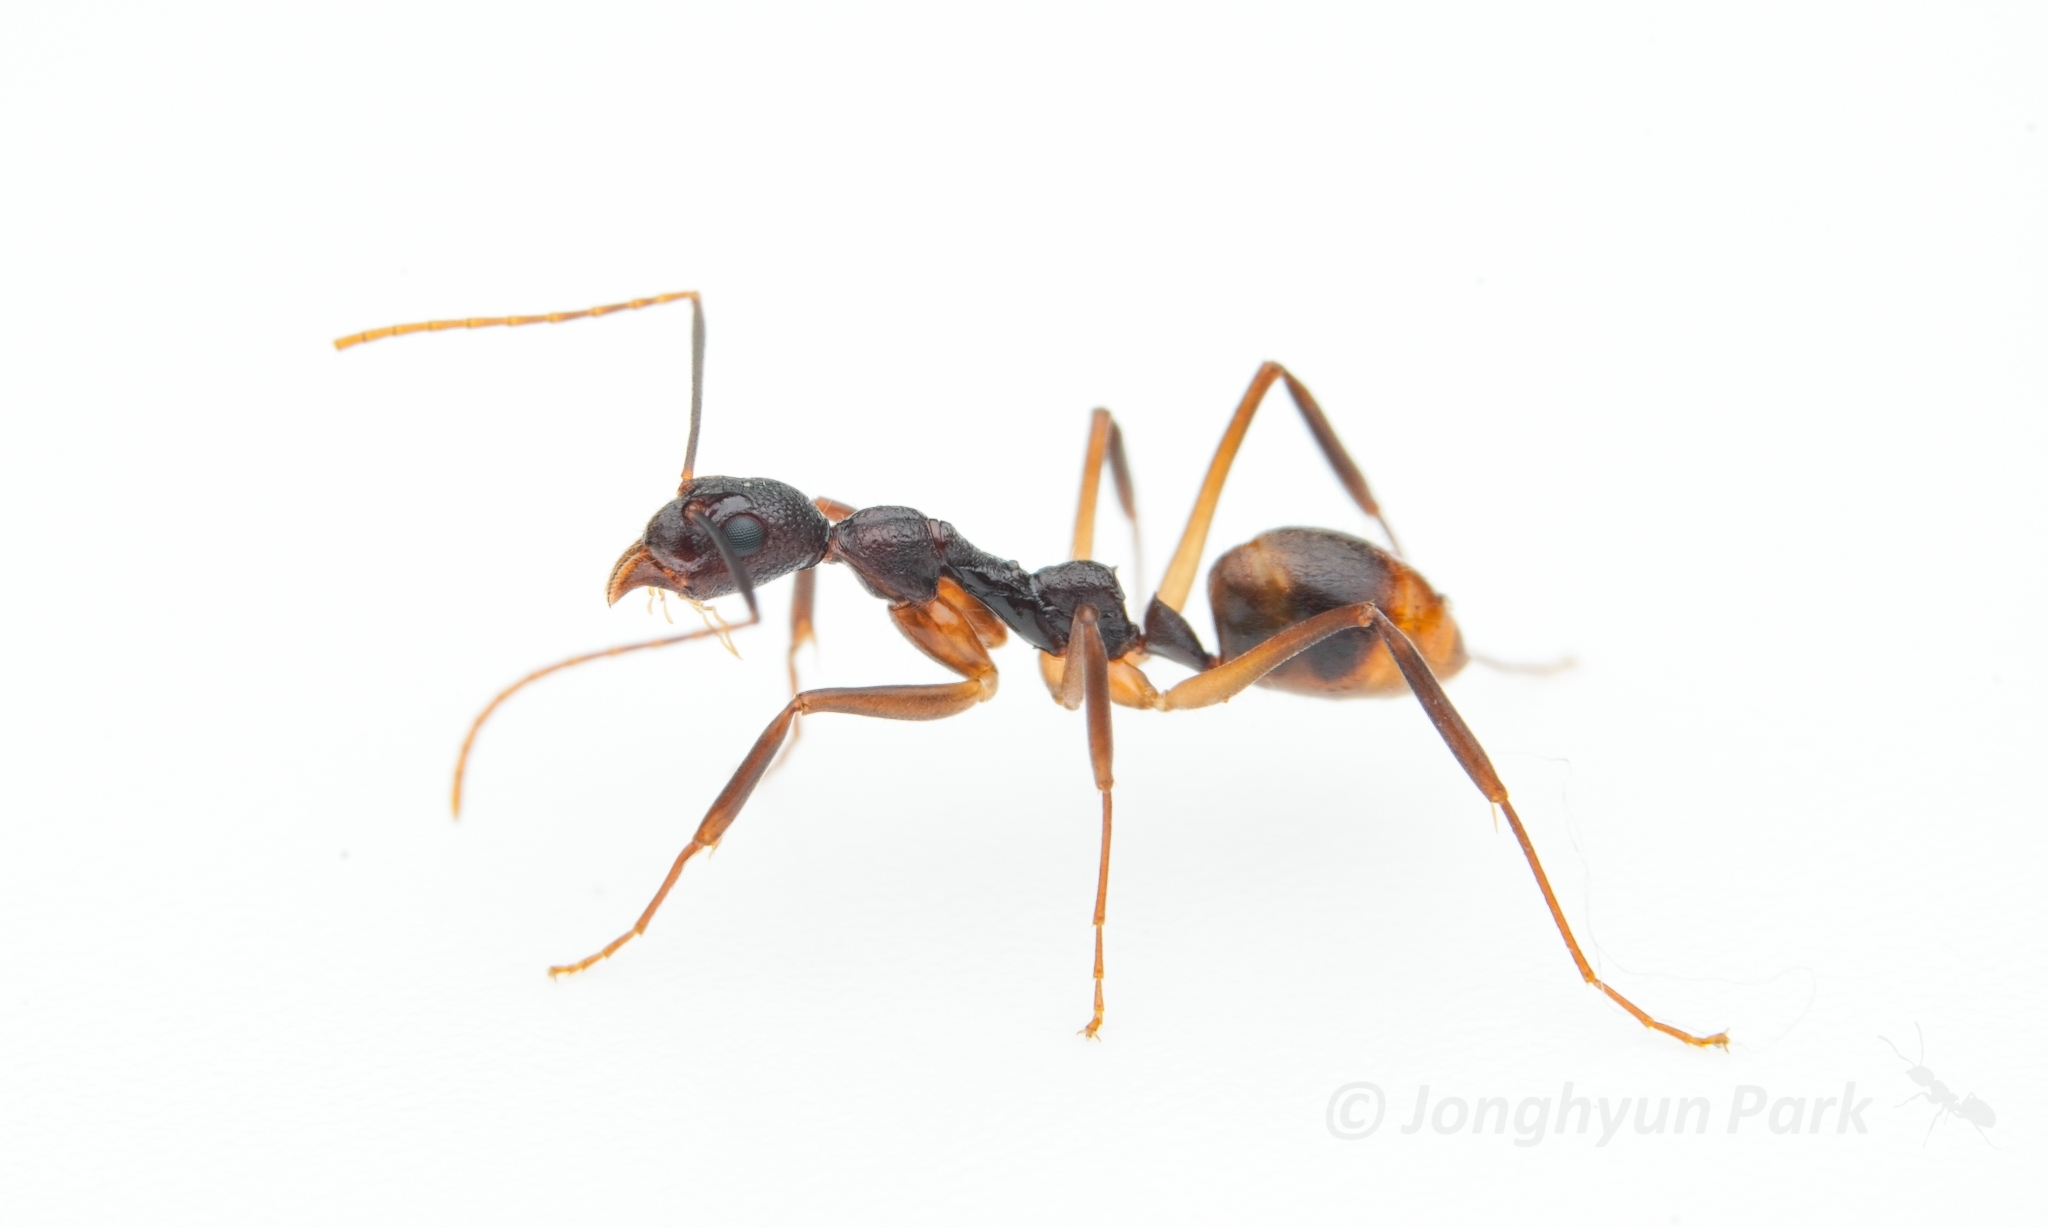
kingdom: Animalia
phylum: Arthropoda
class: Insecta
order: Hymenoptera
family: Formicidae
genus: Dolichoderus
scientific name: Dolichoderus imitator
